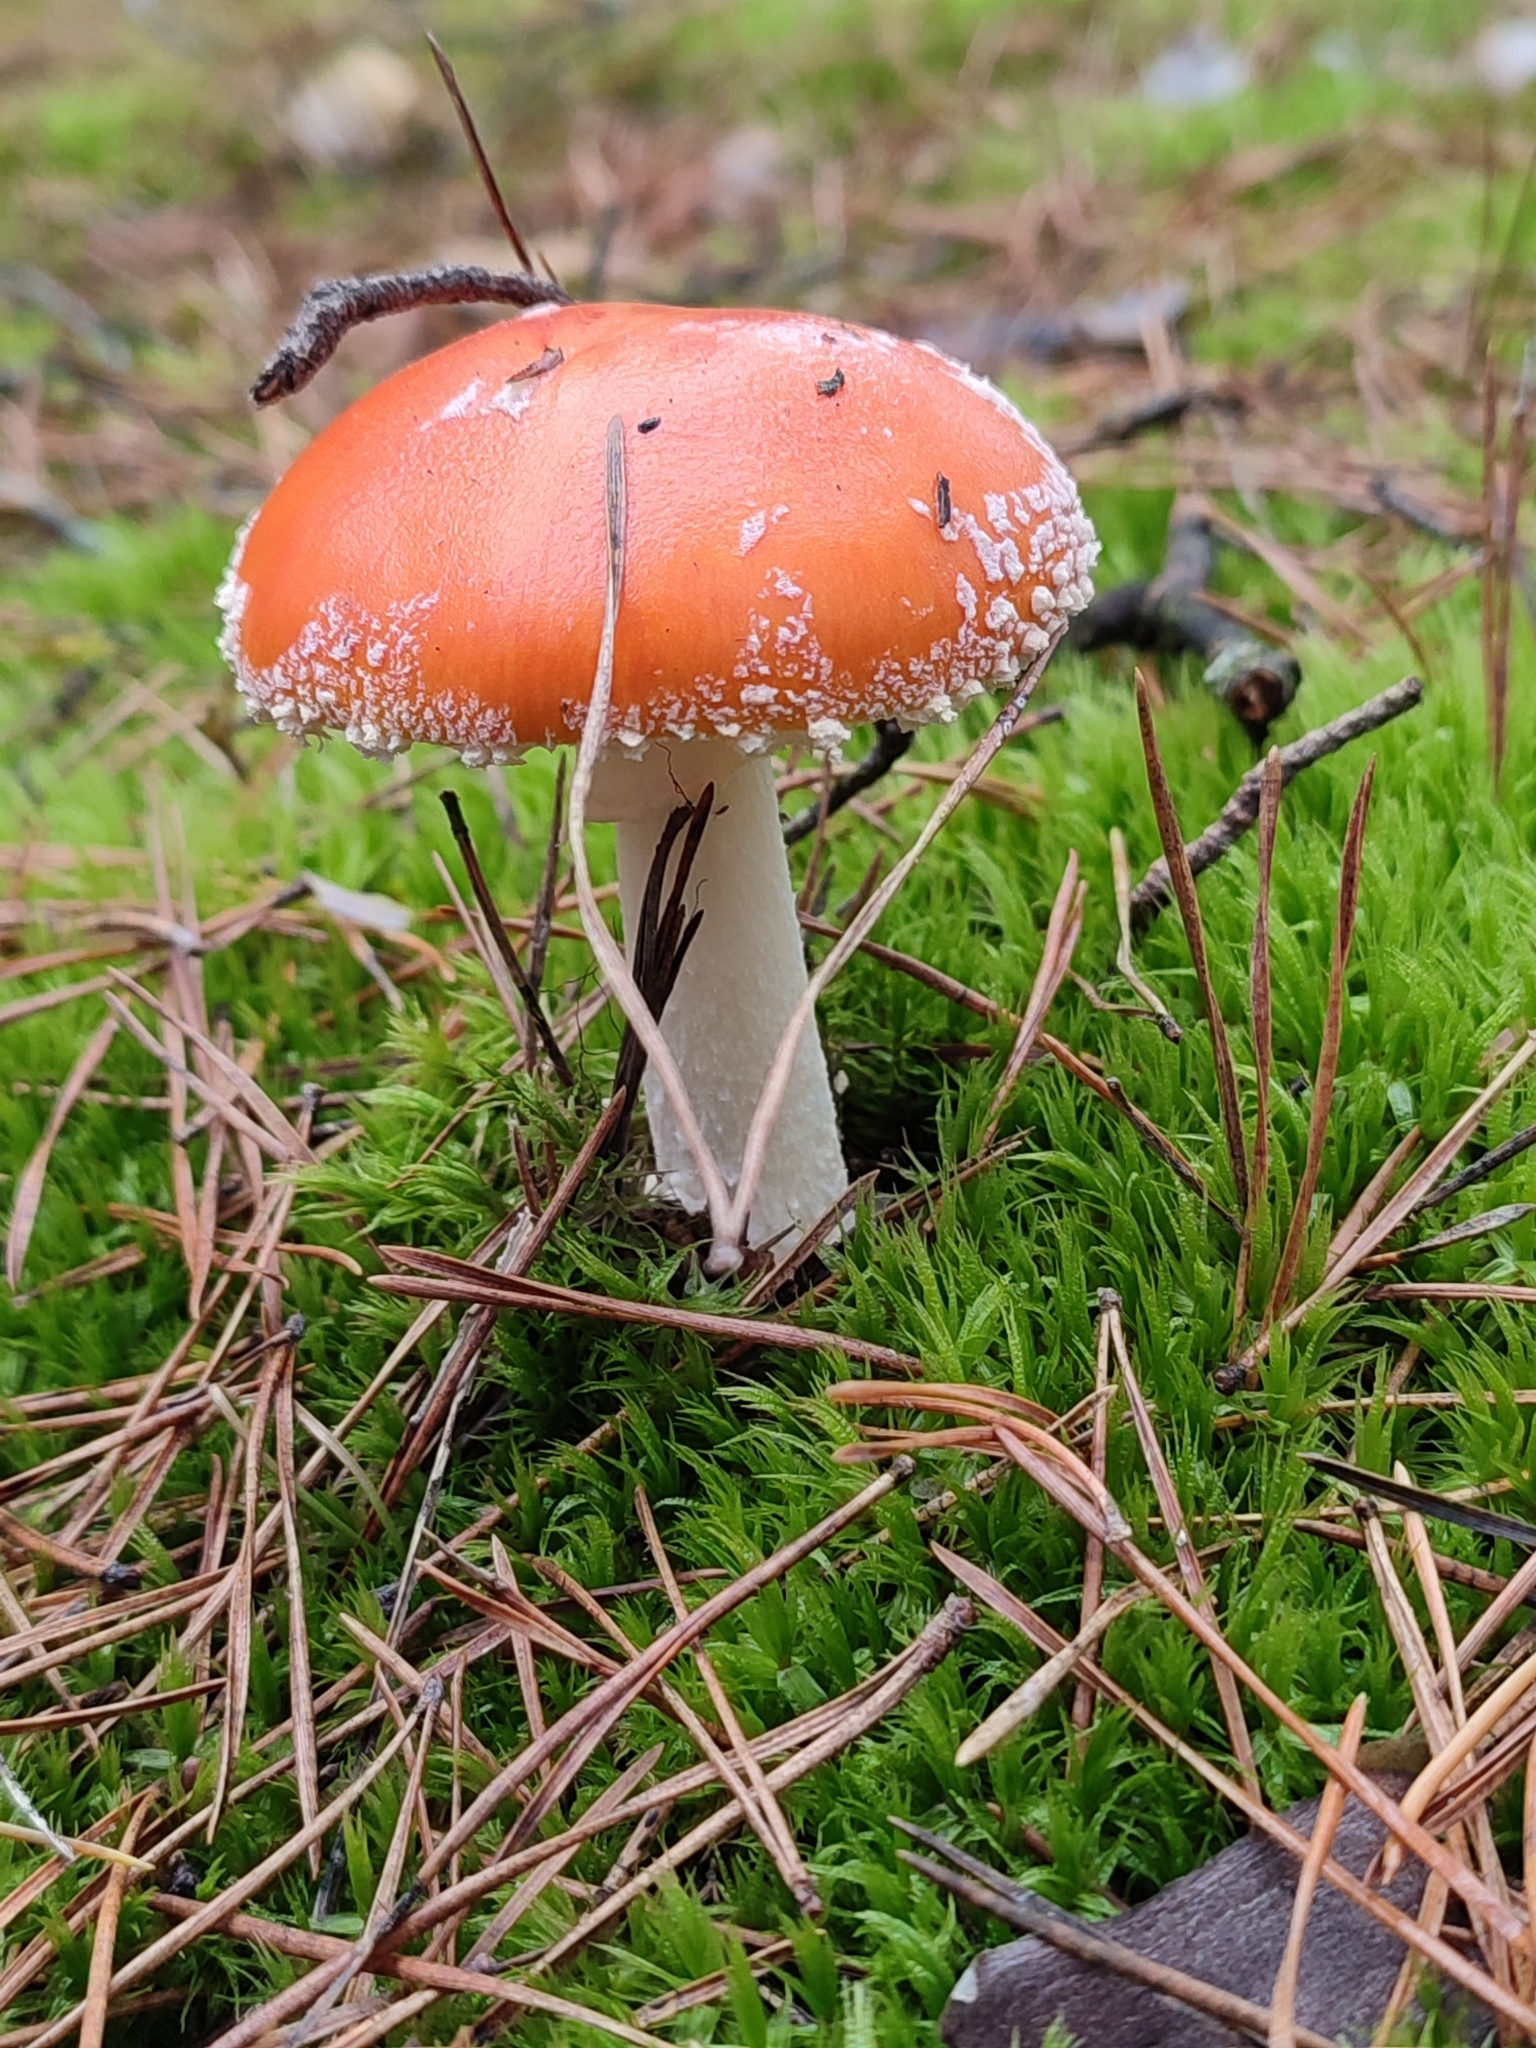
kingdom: Fungi
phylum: Basidiomycota
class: Agaricomycetes
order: Agaricales
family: Amanitaceae
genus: Amanita
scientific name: Amanita muscaria
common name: Fly agaric
